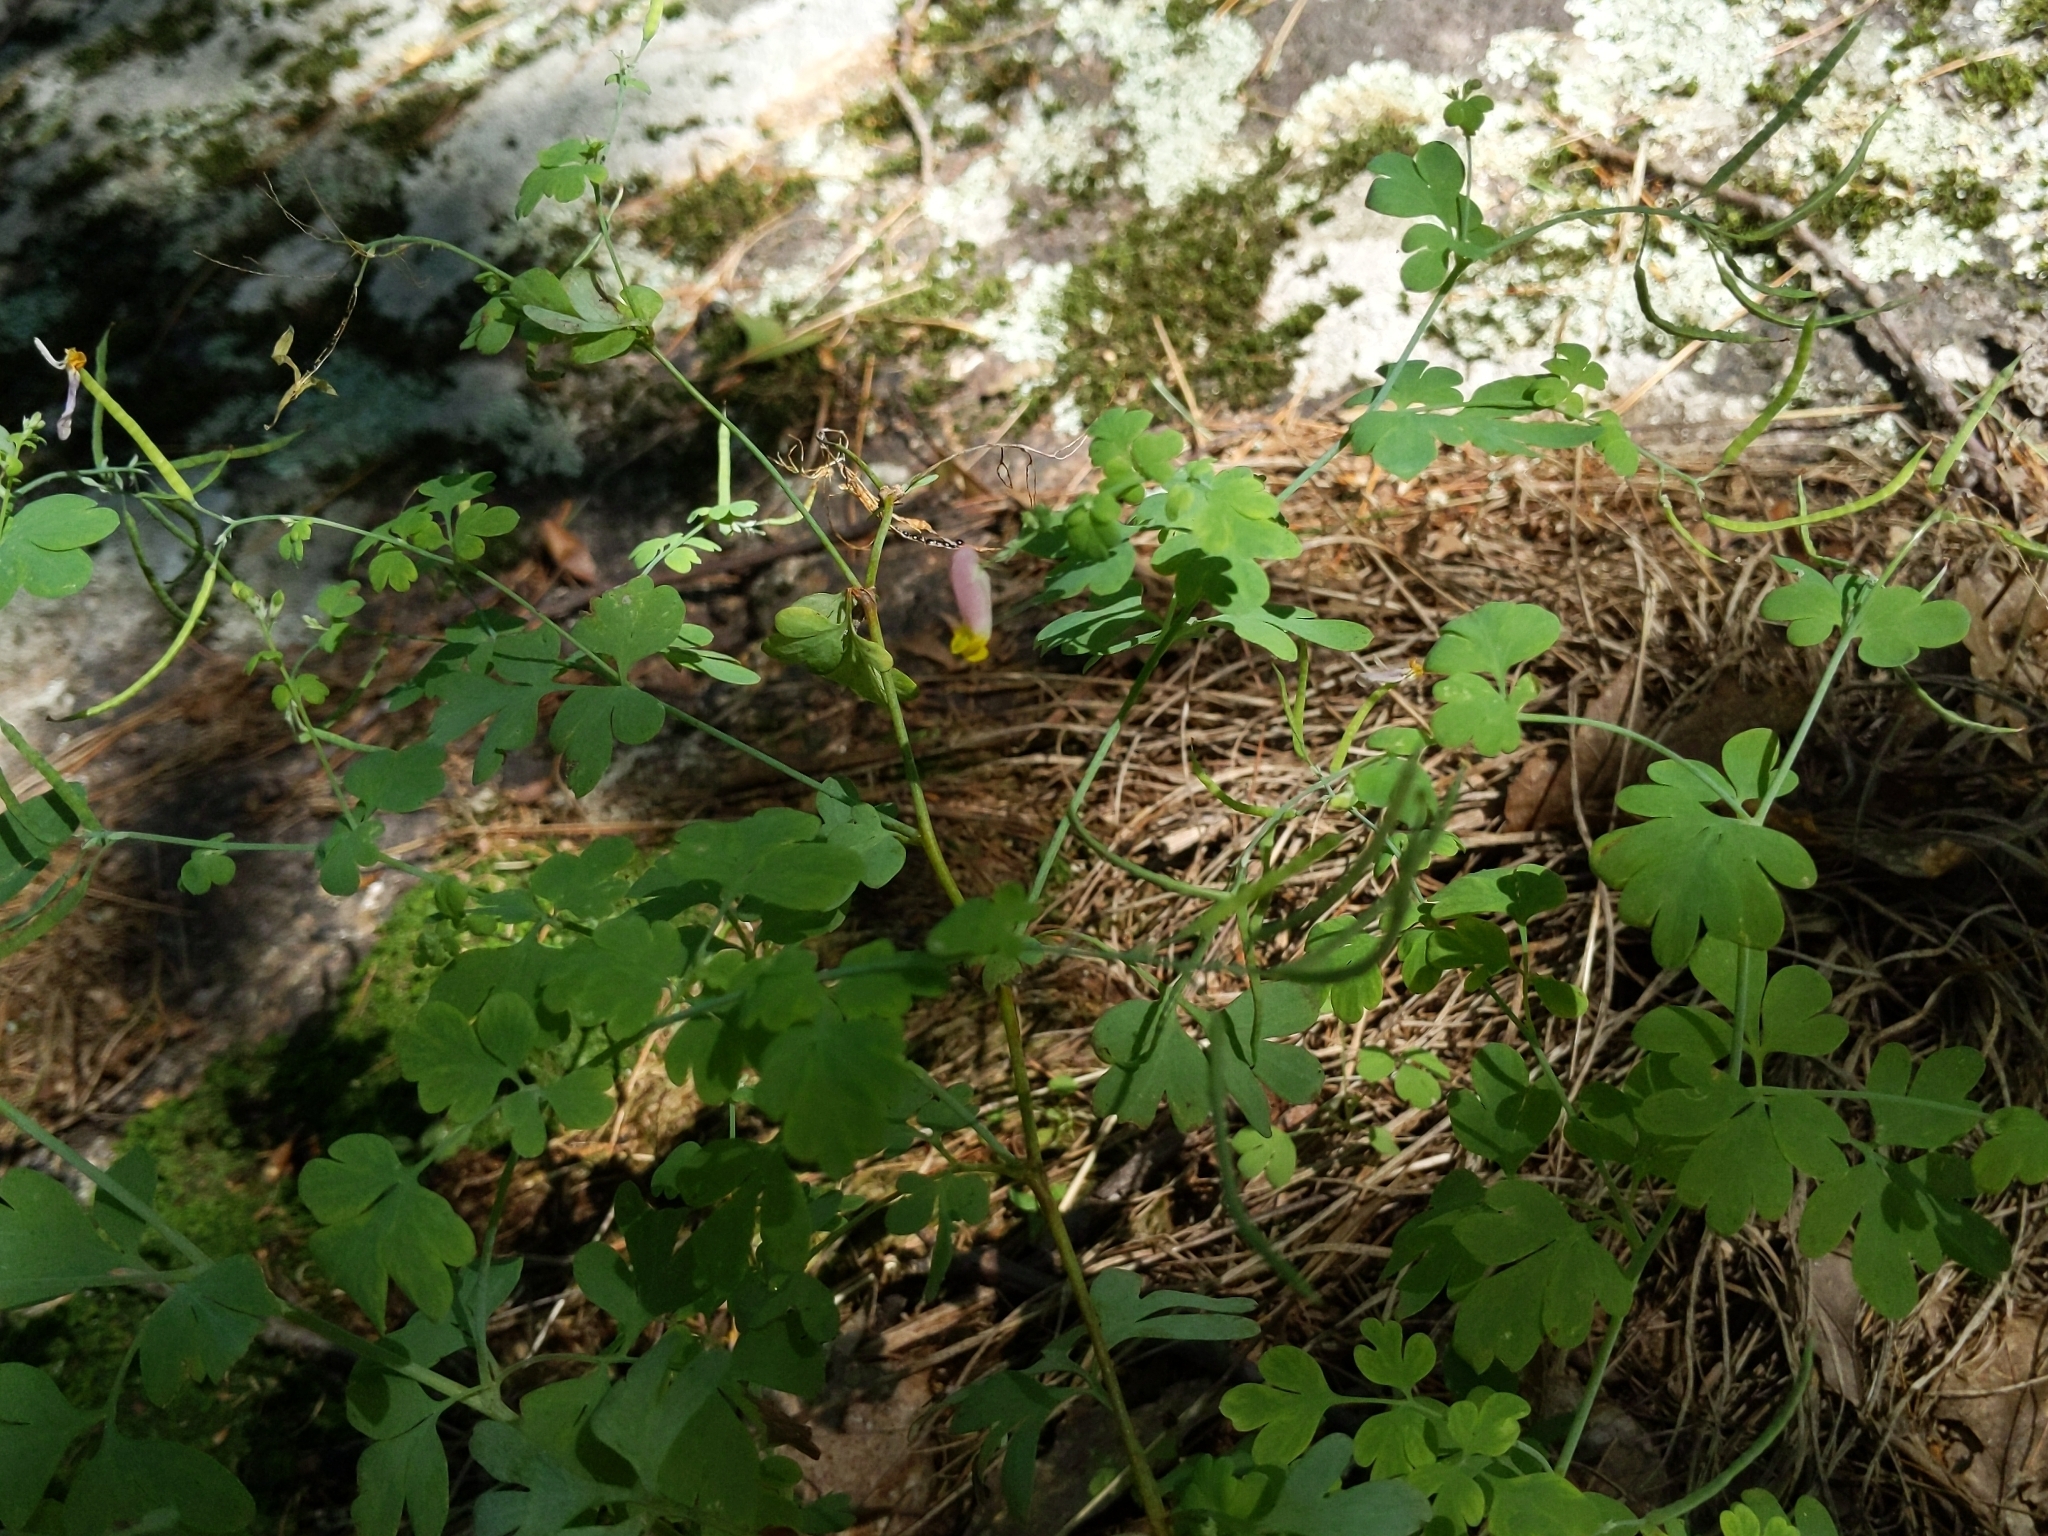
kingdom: Plantae
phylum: Tracheophyta
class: Magnoliopsida
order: Ranunculales
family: Papaveraceae
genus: Capnoides
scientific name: Capnoides sempervirens
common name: Rock harlequin
